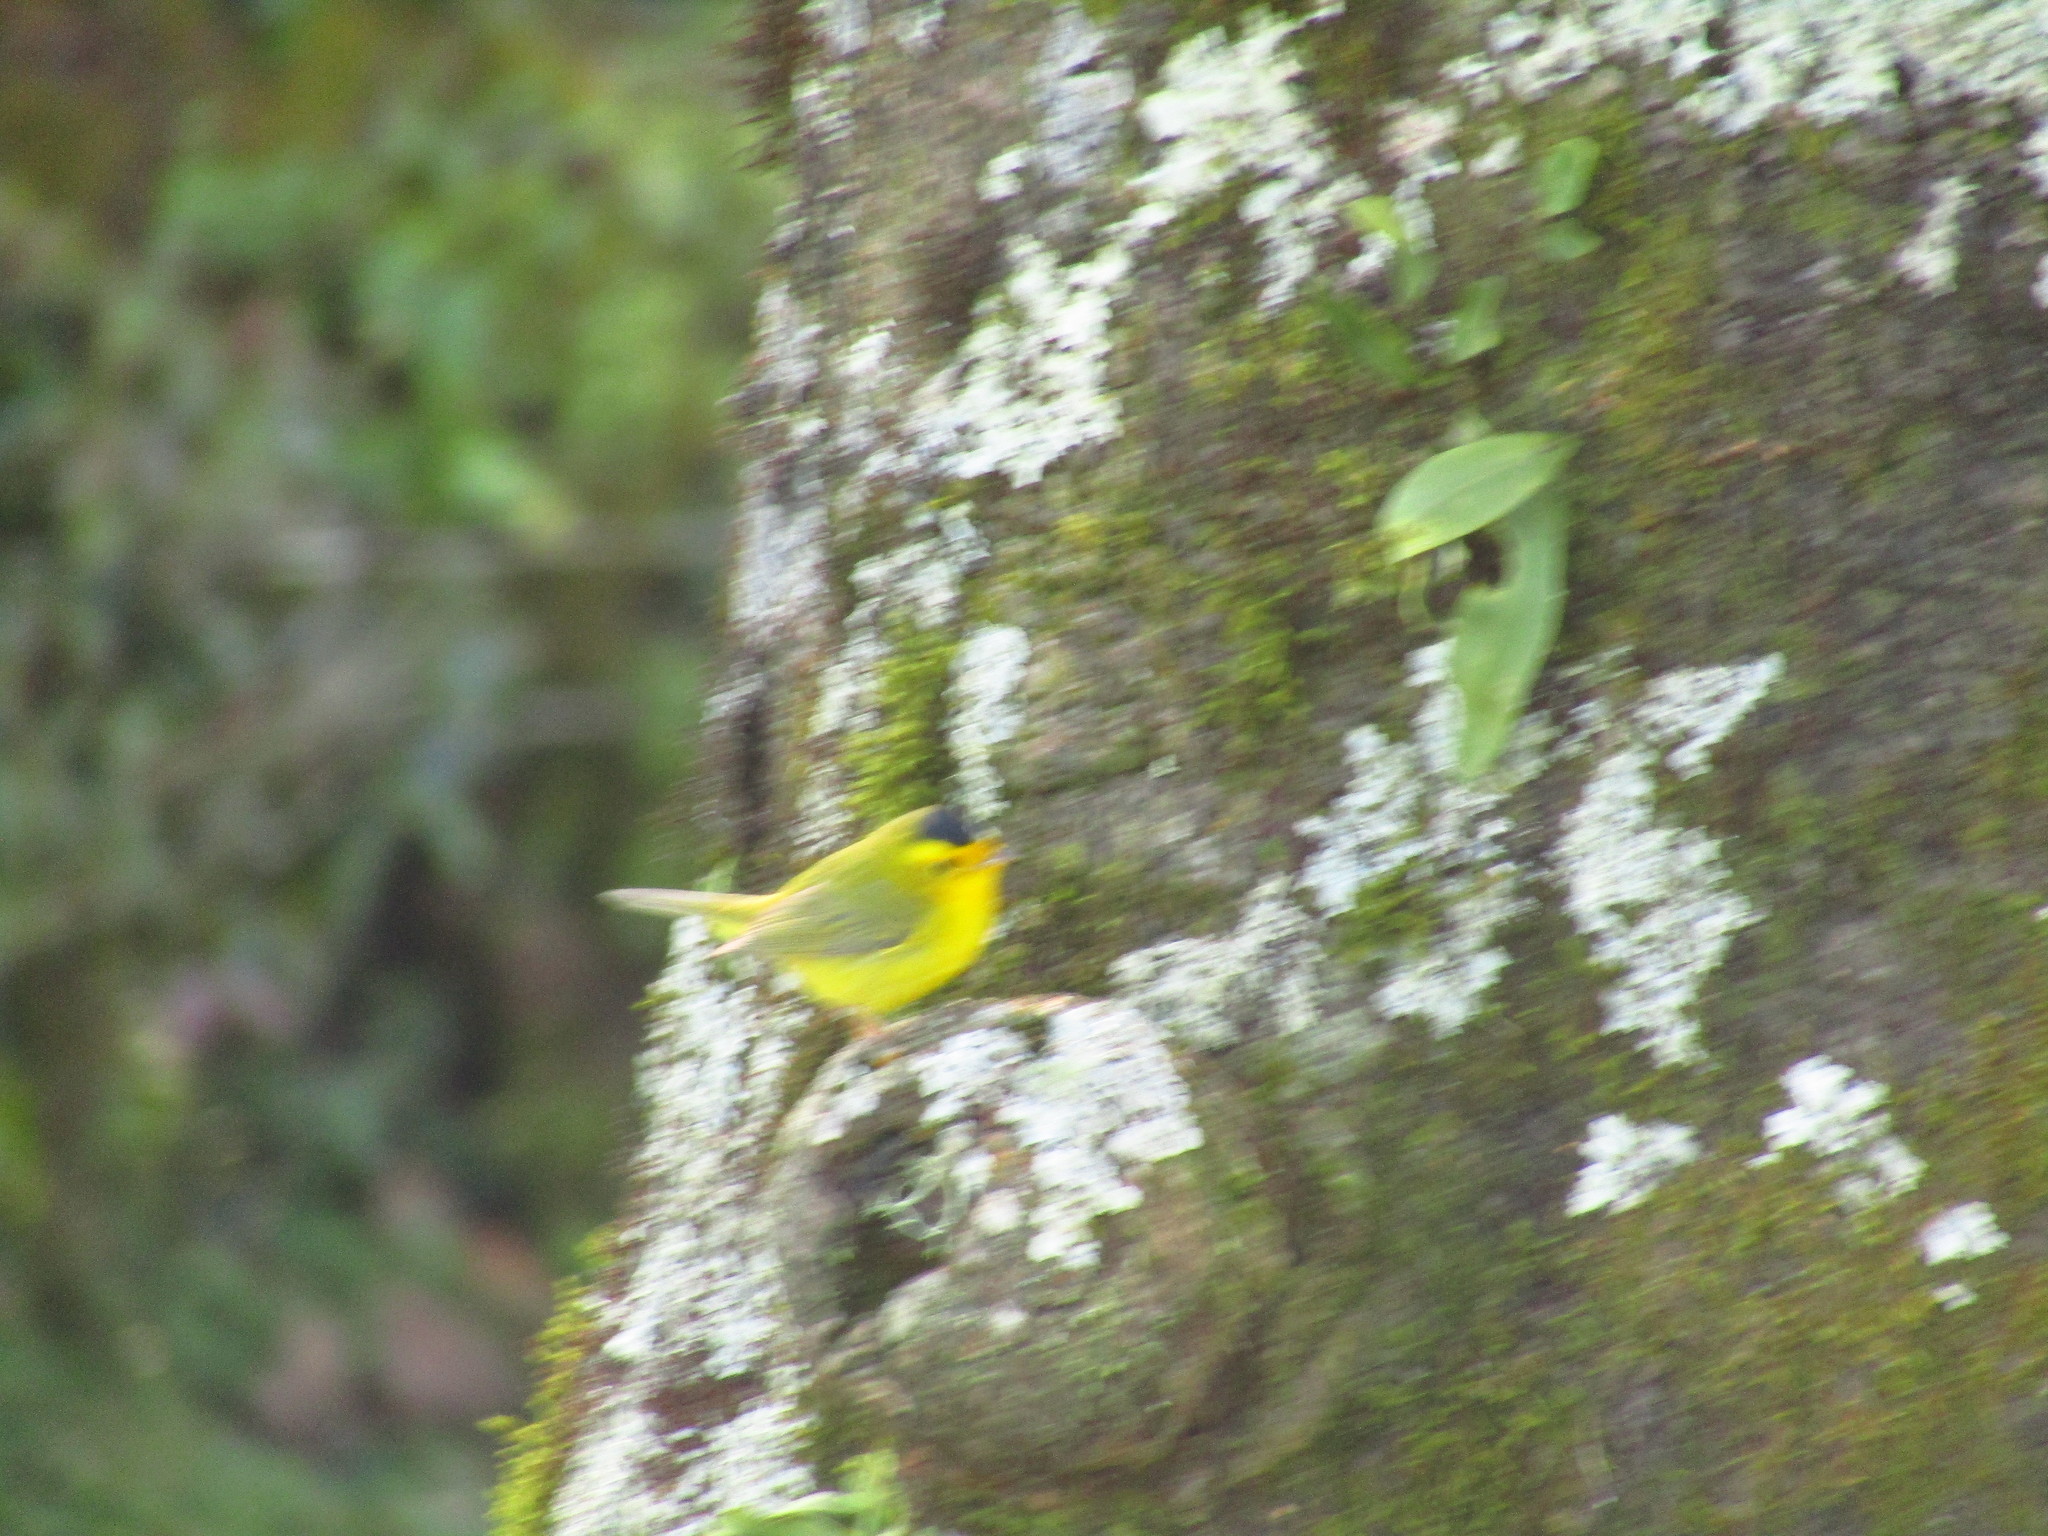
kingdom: Animalia
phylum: Chordata
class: Aves
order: Passeriformes
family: Parulidae
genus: Cardellina
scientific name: Cardellina pusilla
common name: Wilson's warbler
